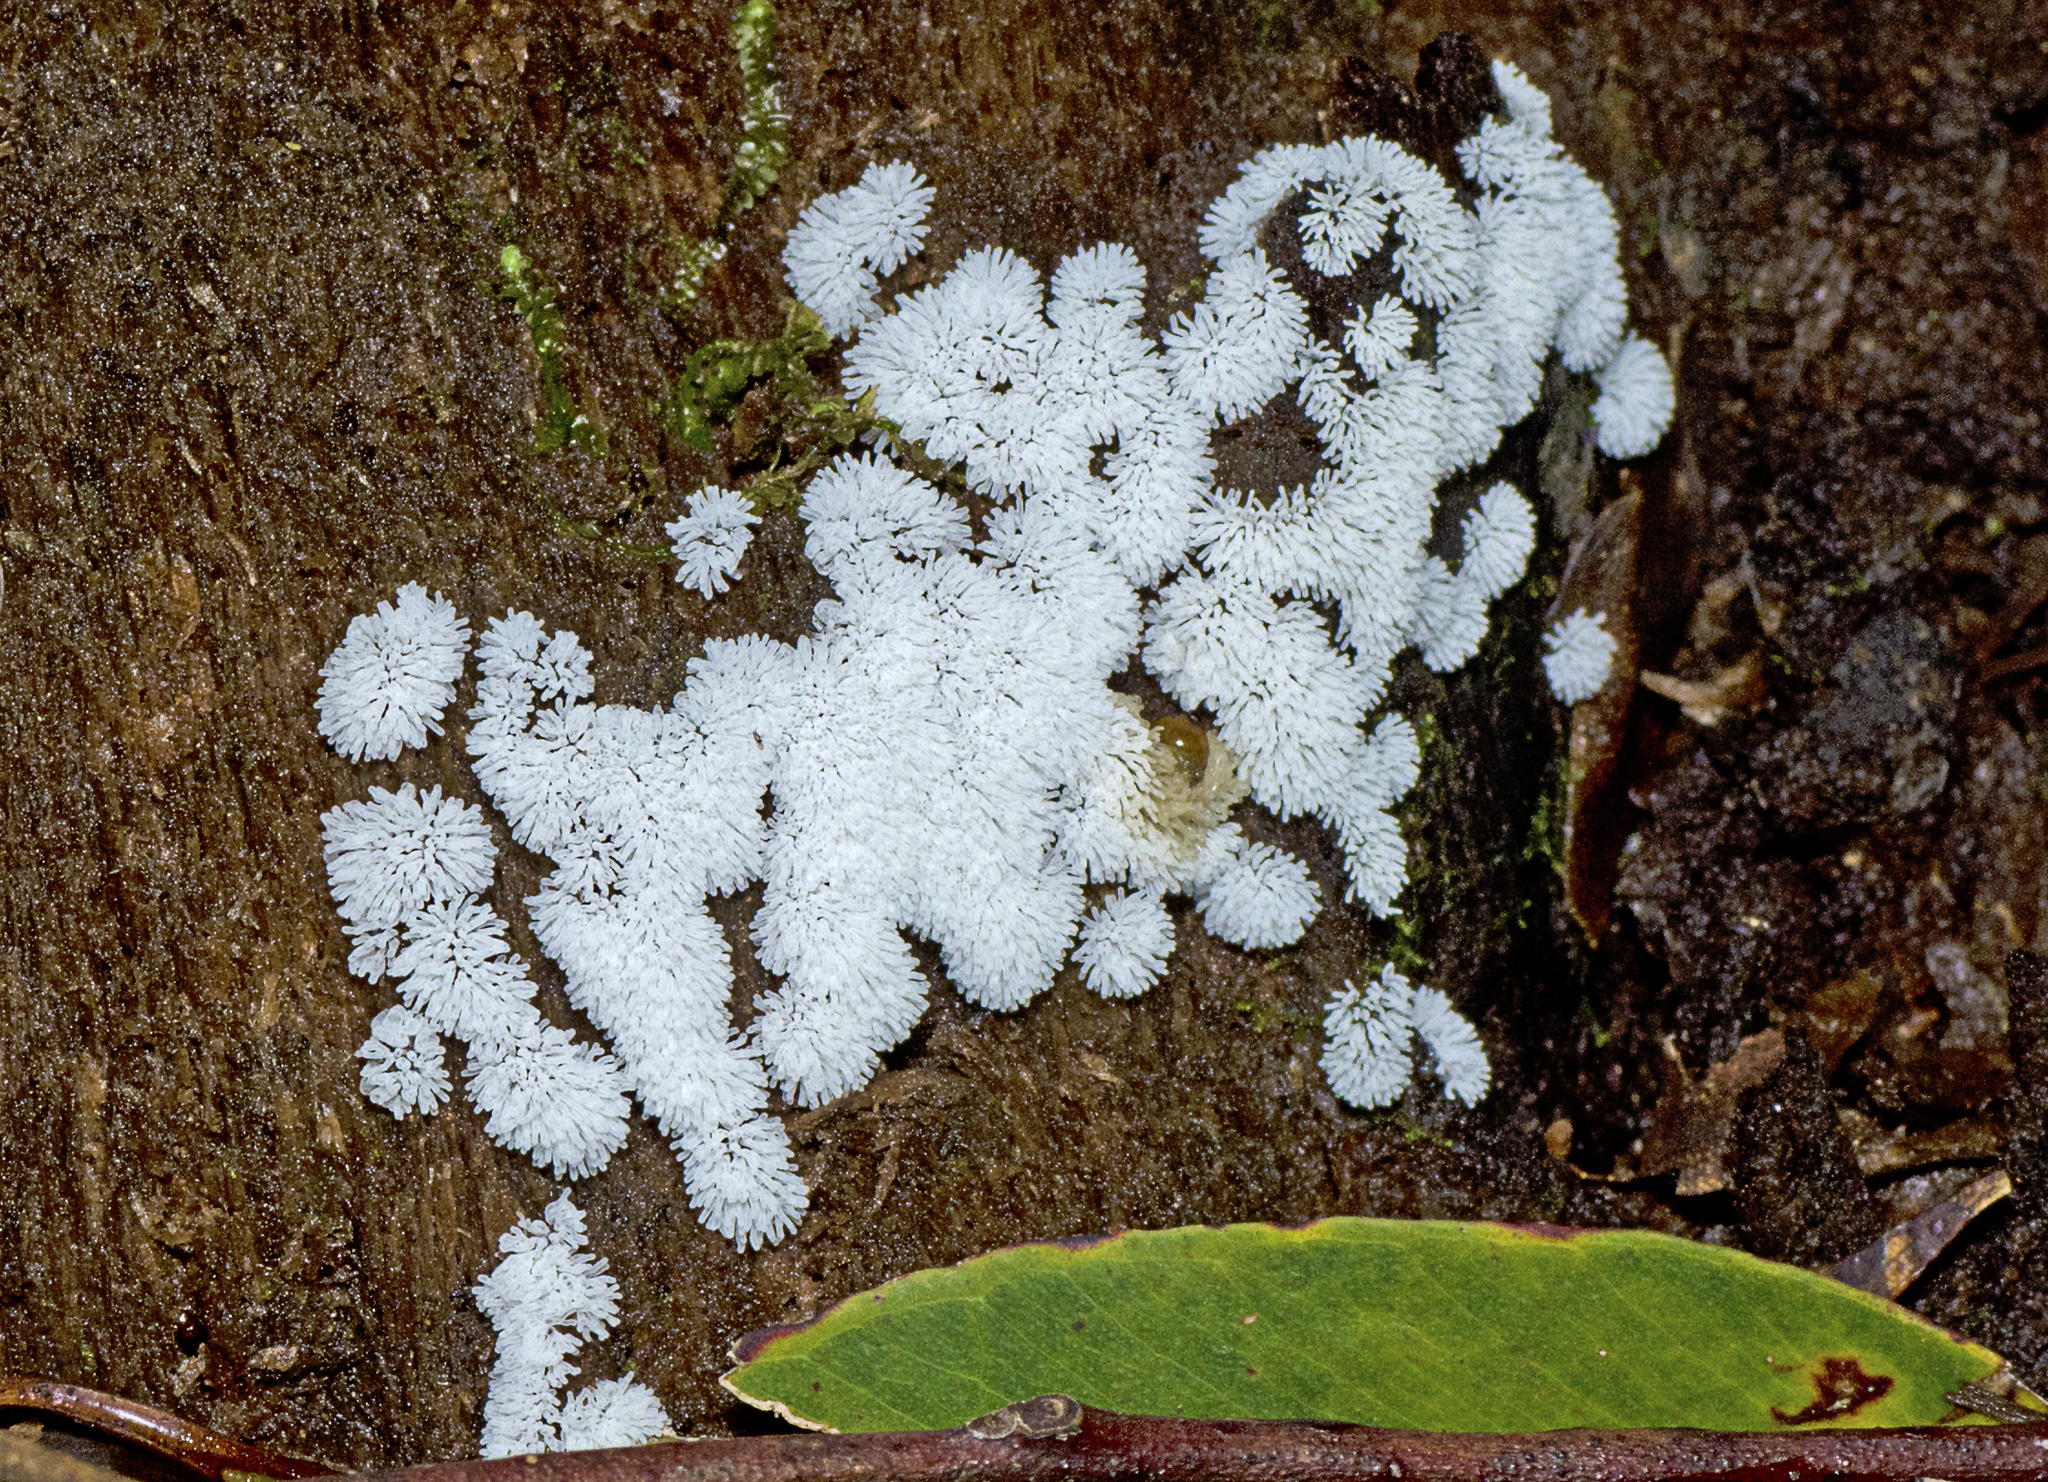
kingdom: Protozoa
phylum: Mycetozoa
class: Protosteliomycetes
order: Ceratiomyxales
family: Ceratiomyxaceae
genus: Ceratiomyxa
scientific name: Ceratiomyxa fruticulosa
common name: Honeycomb coral slime mold
